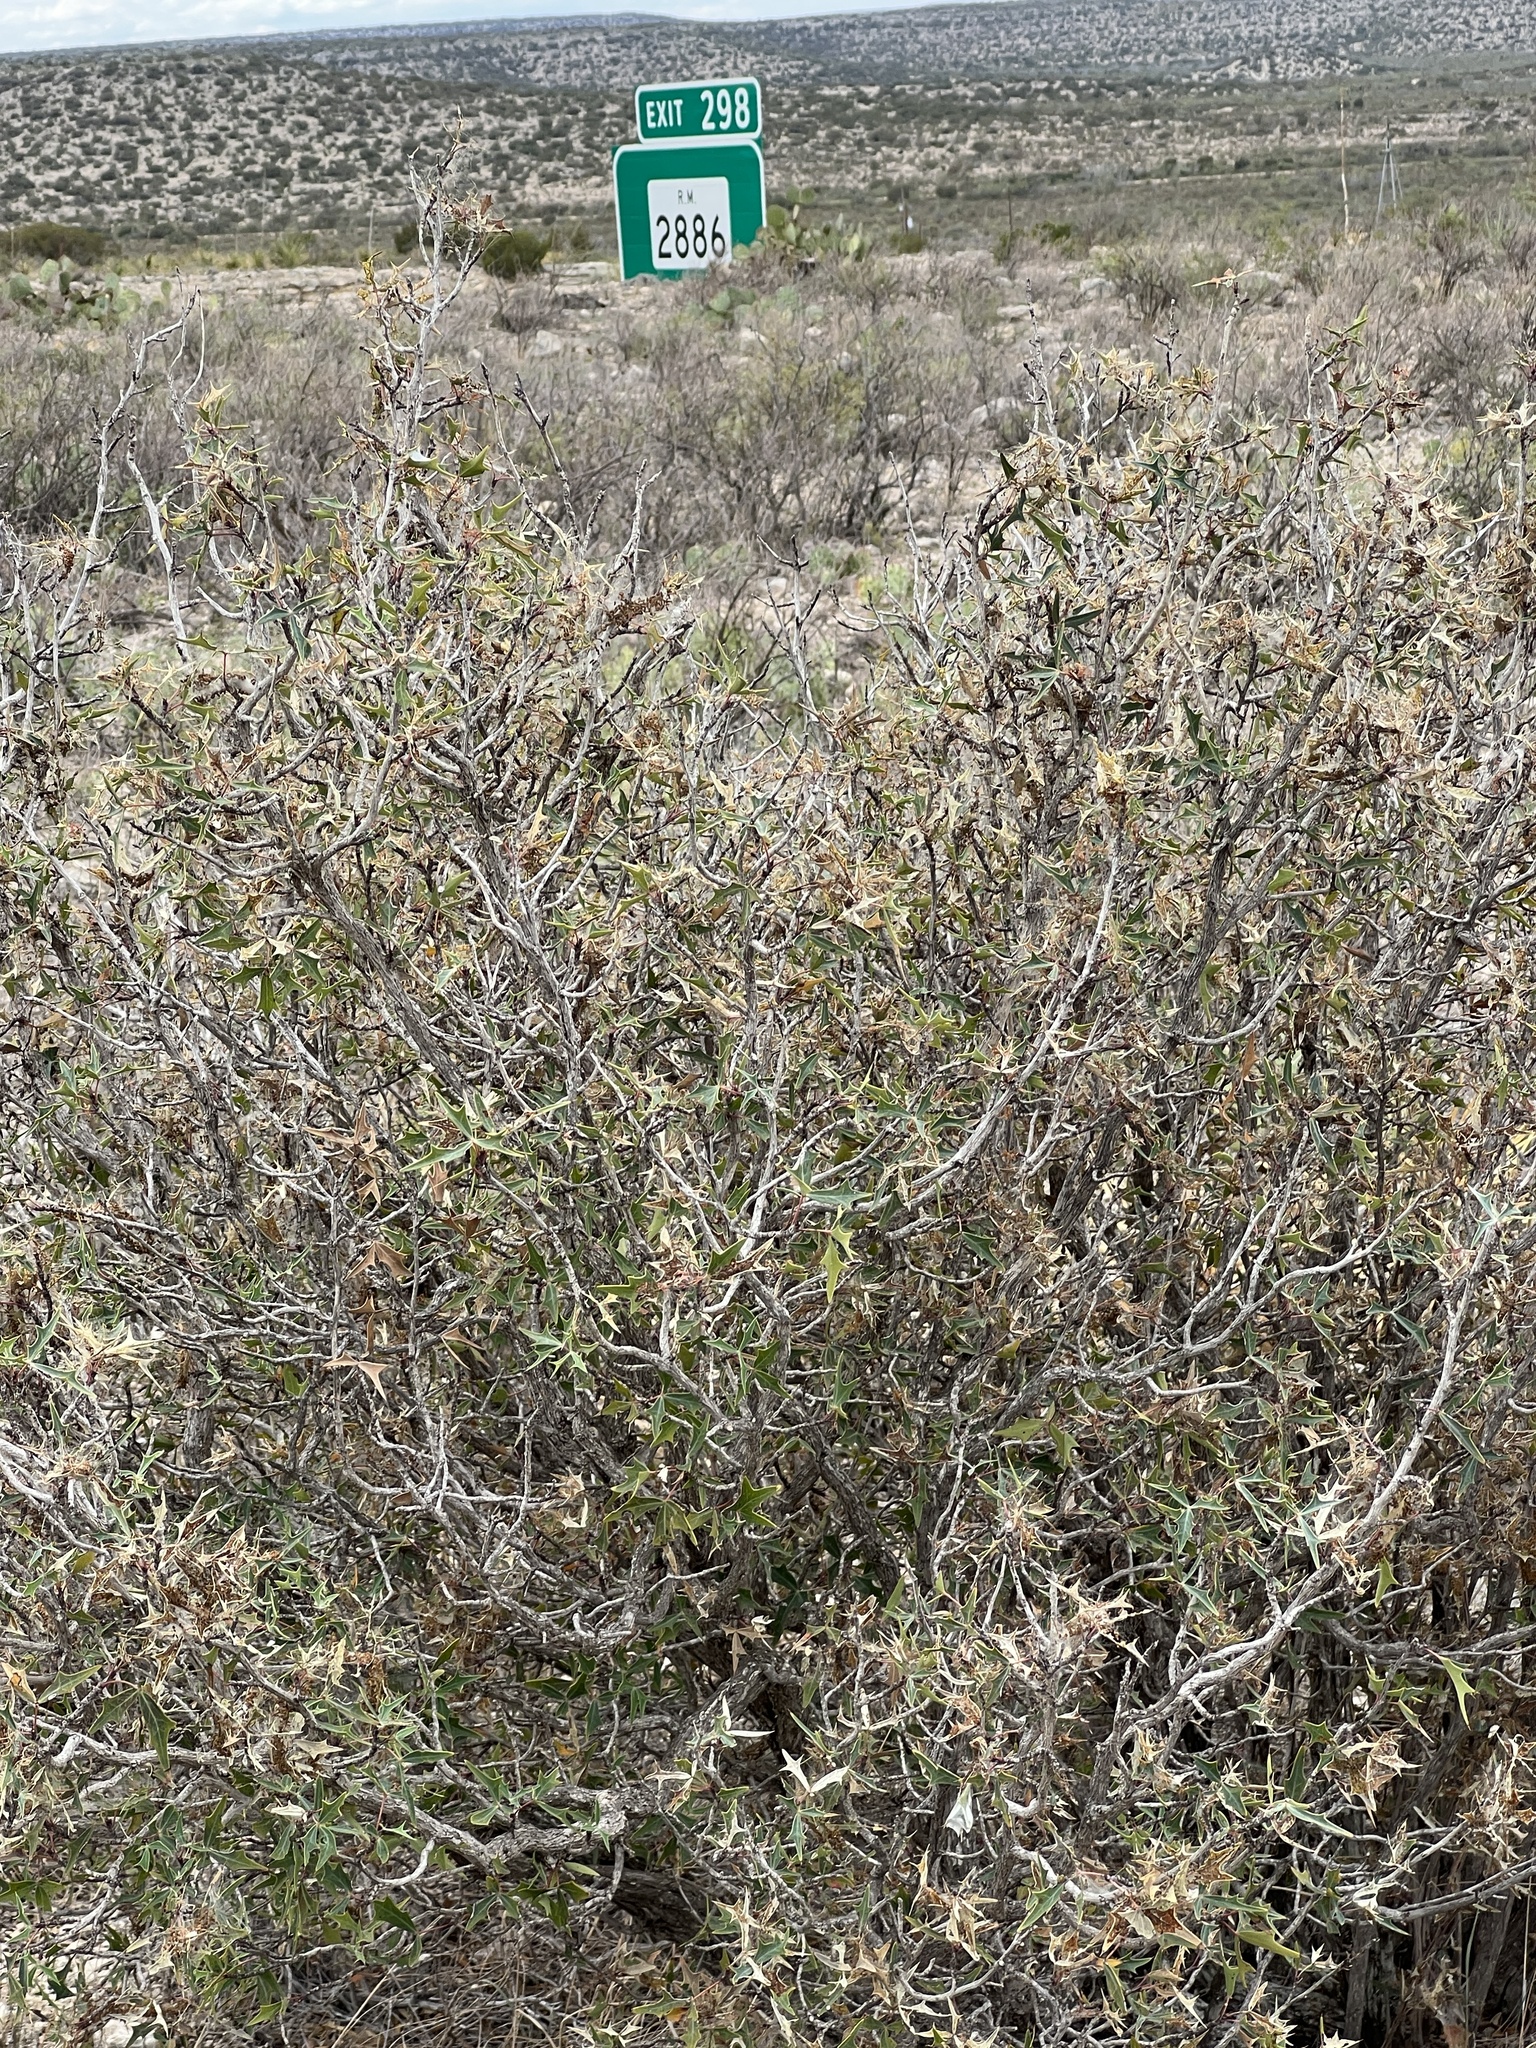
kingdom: Plantae
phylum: Tracheophyta
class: Magnoliopsida
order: Asterales
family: Asteraceae
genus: Flourensia
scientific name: Flourensia cernua
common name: Varnishbush
